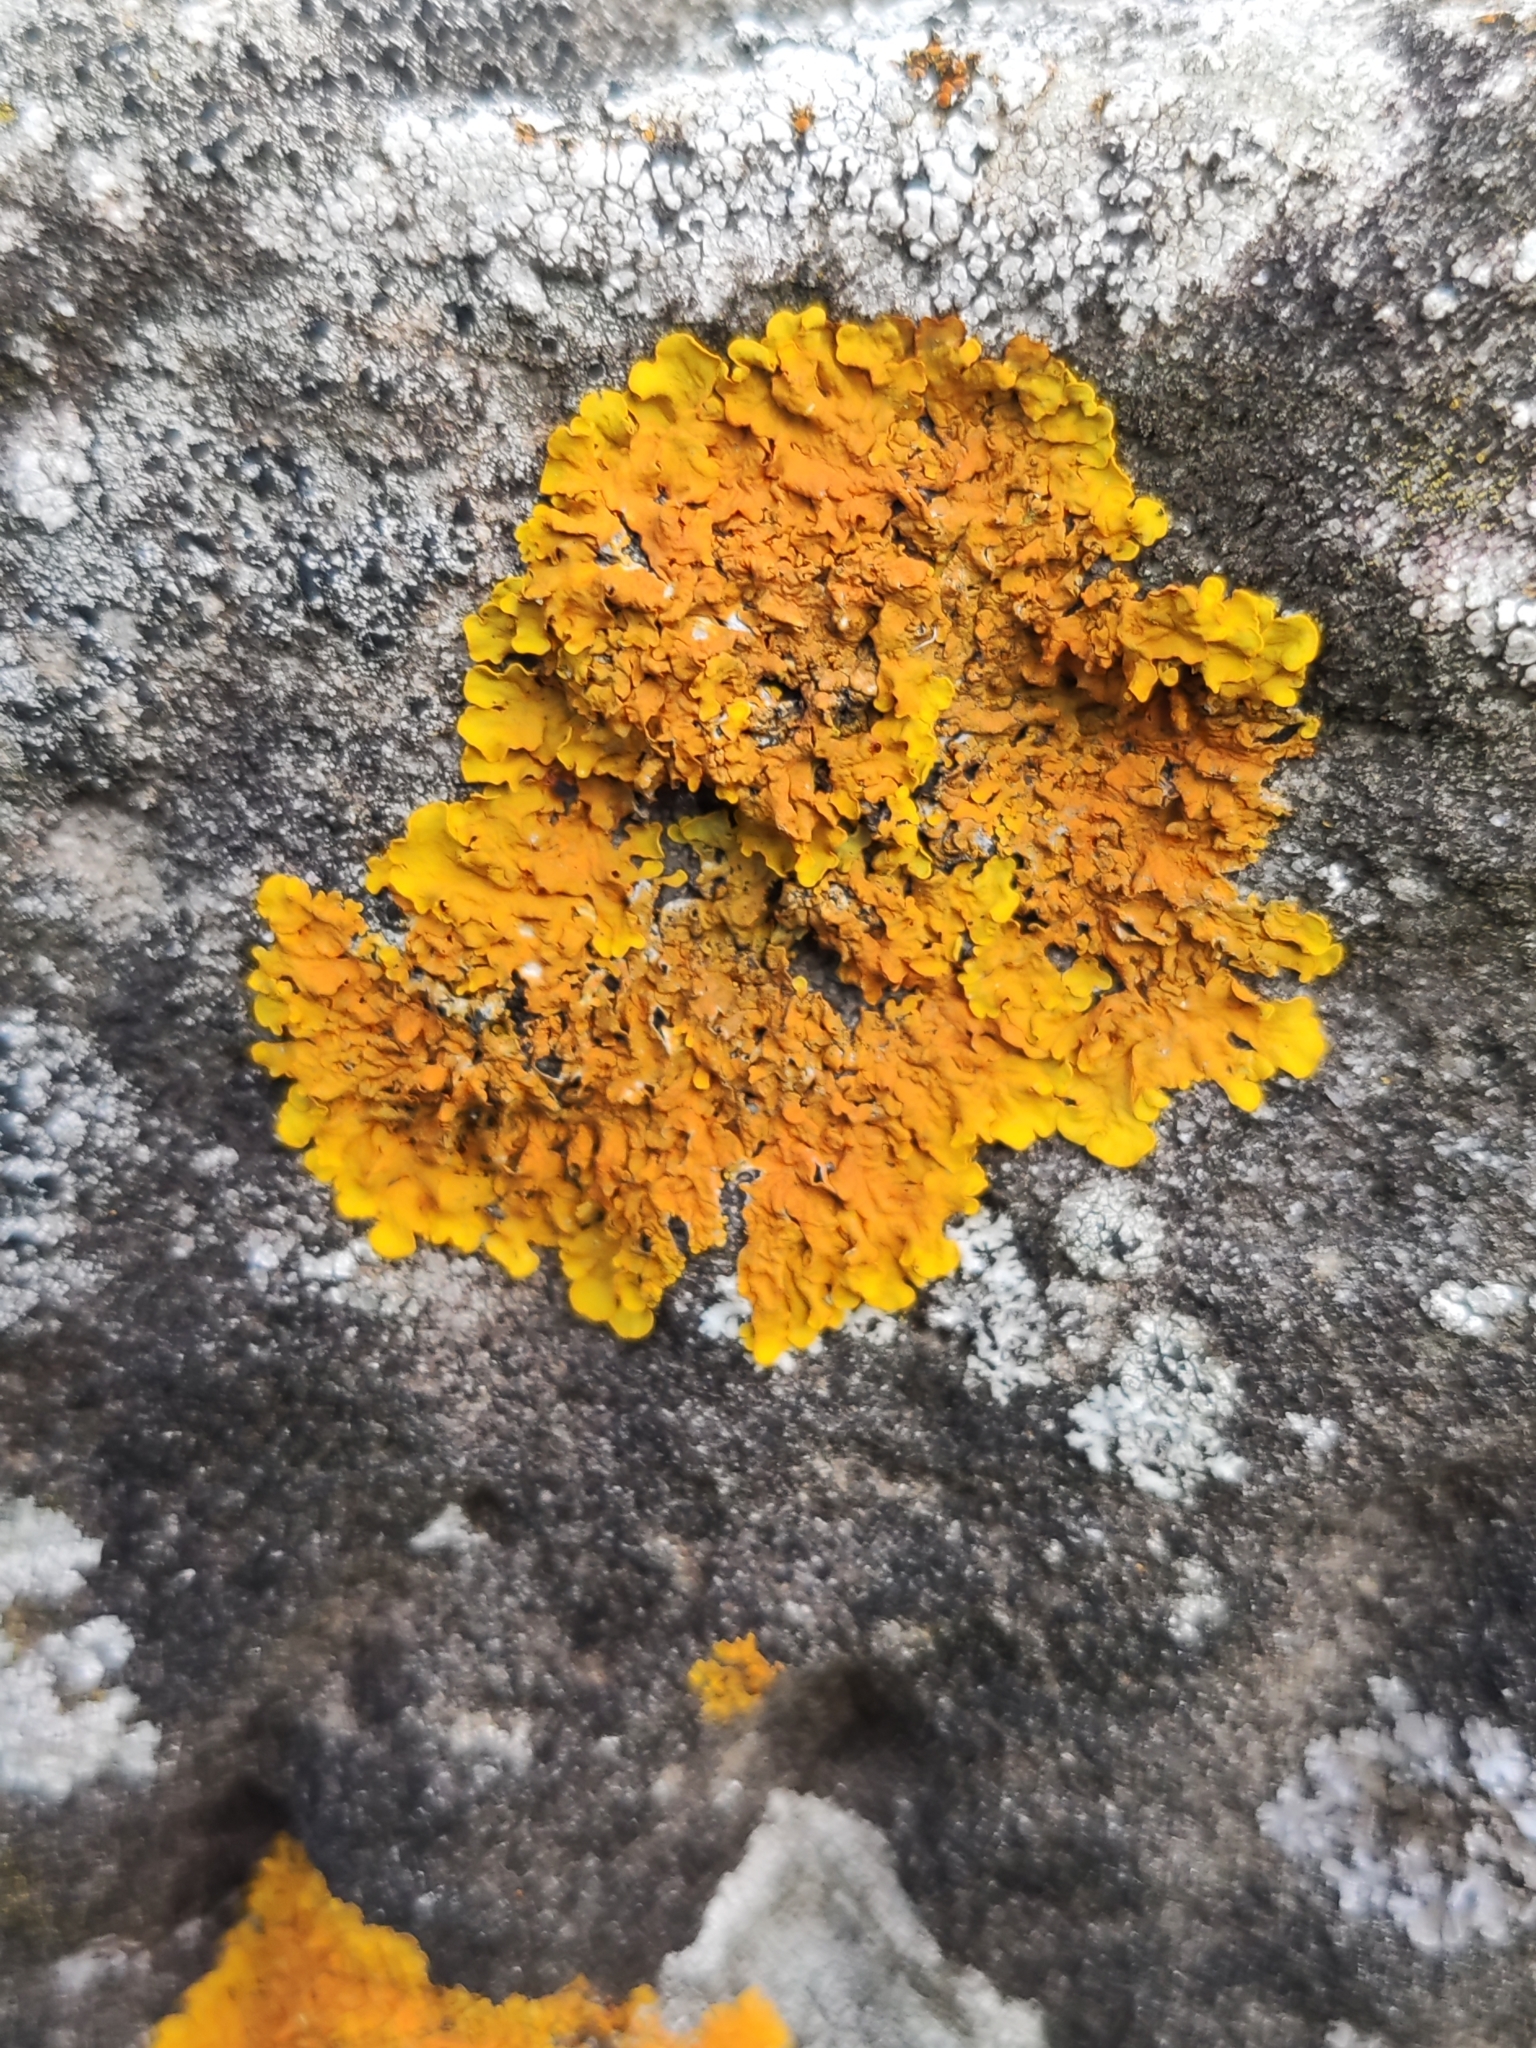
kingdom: Fungi
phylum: Ascomycota
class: Lecanoromycetes
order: Teloschistales
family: Teloschistaceae
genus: Xanthoria
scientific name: Xanthoria parietina
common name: Common orange lichen
